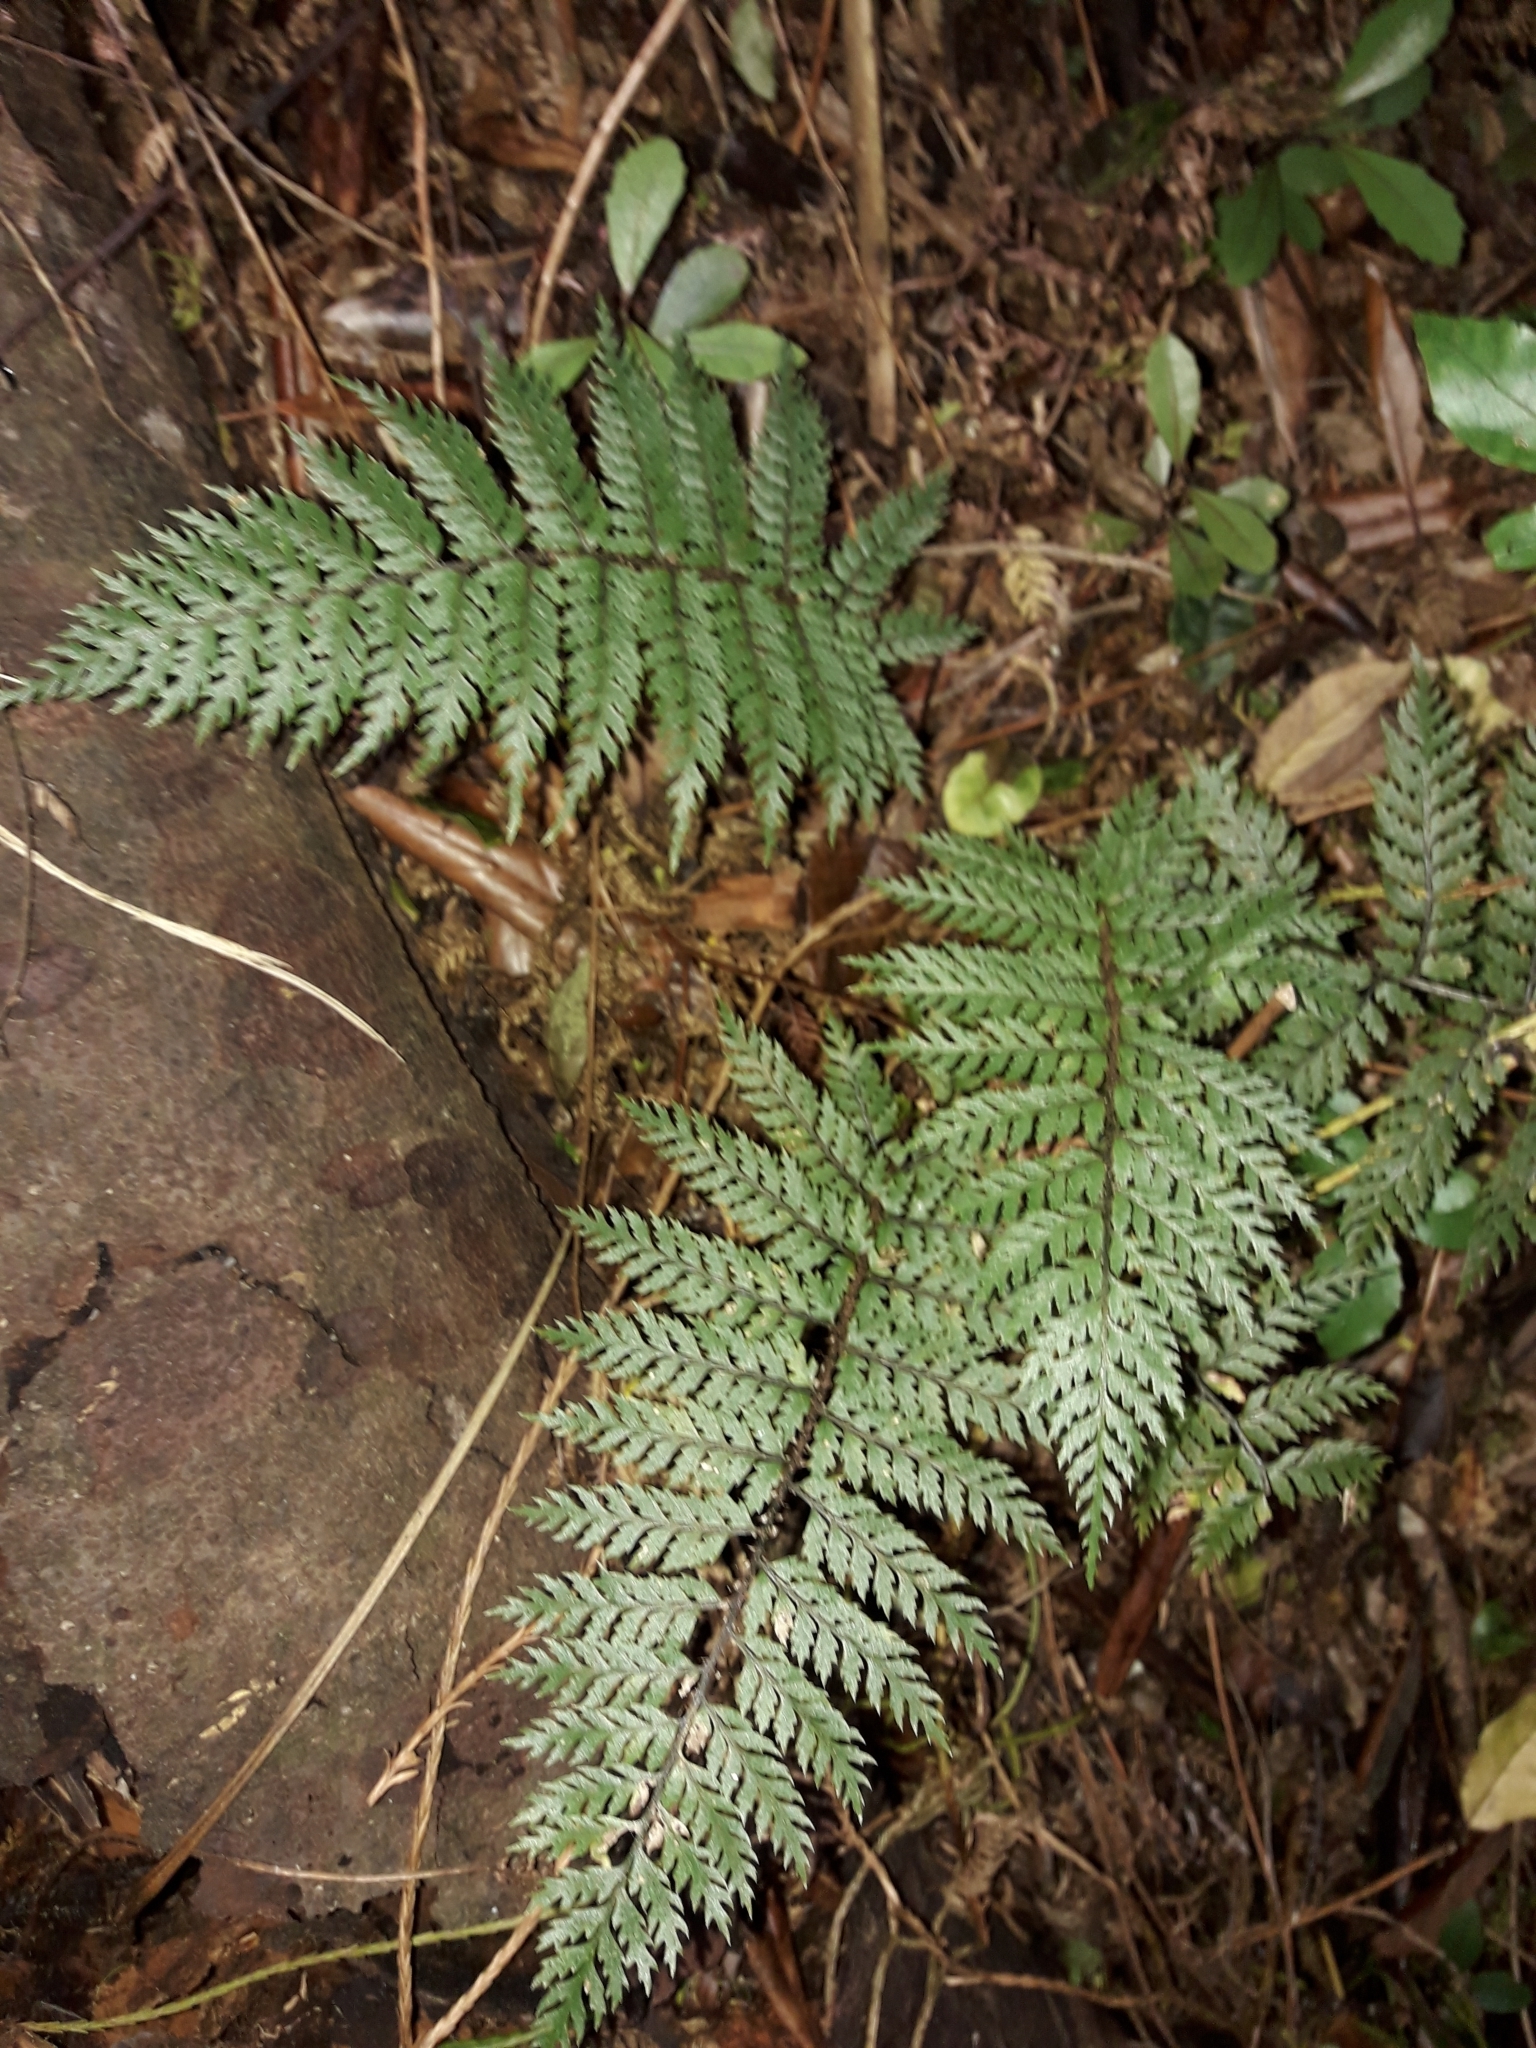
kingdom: Plantae
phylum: Tracheophyta
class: Polypodiopsida
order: Polypodiales
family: Dryopteridaceae
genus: Polystichum
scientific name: Polystichum silvaticum
